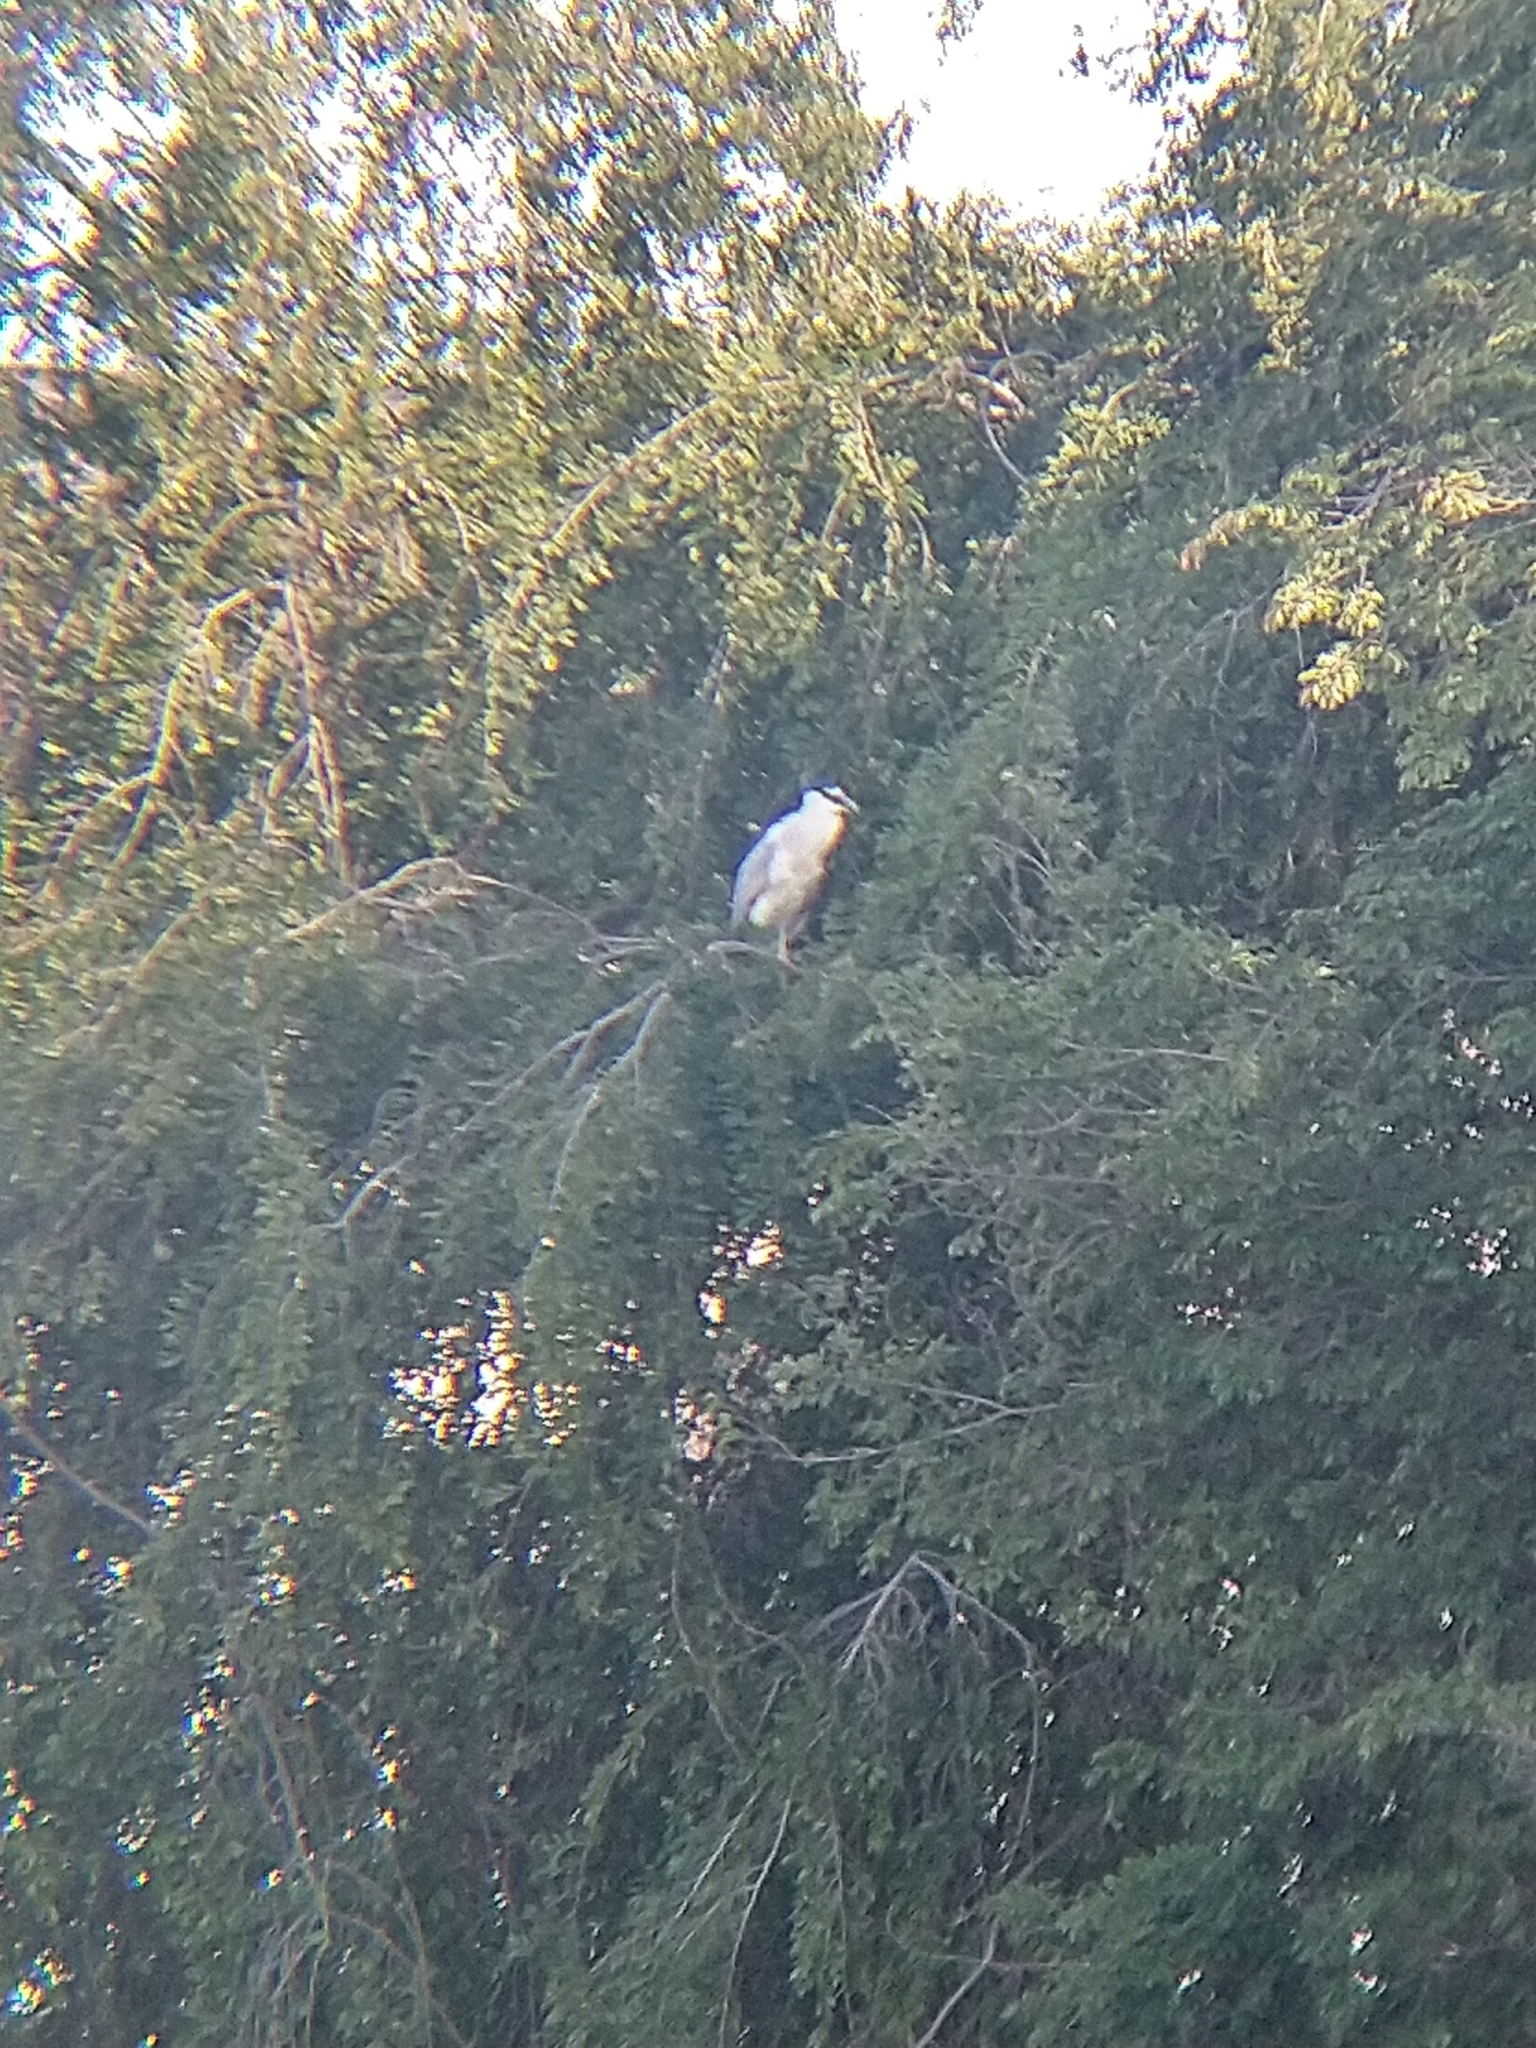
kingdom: Animalia
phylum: Chordata
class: Aves
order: Pelecaniformes
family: Ardeidae
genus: Nycticorax
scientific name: Nycticorax nycticorax
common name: Black-crowned night heron
